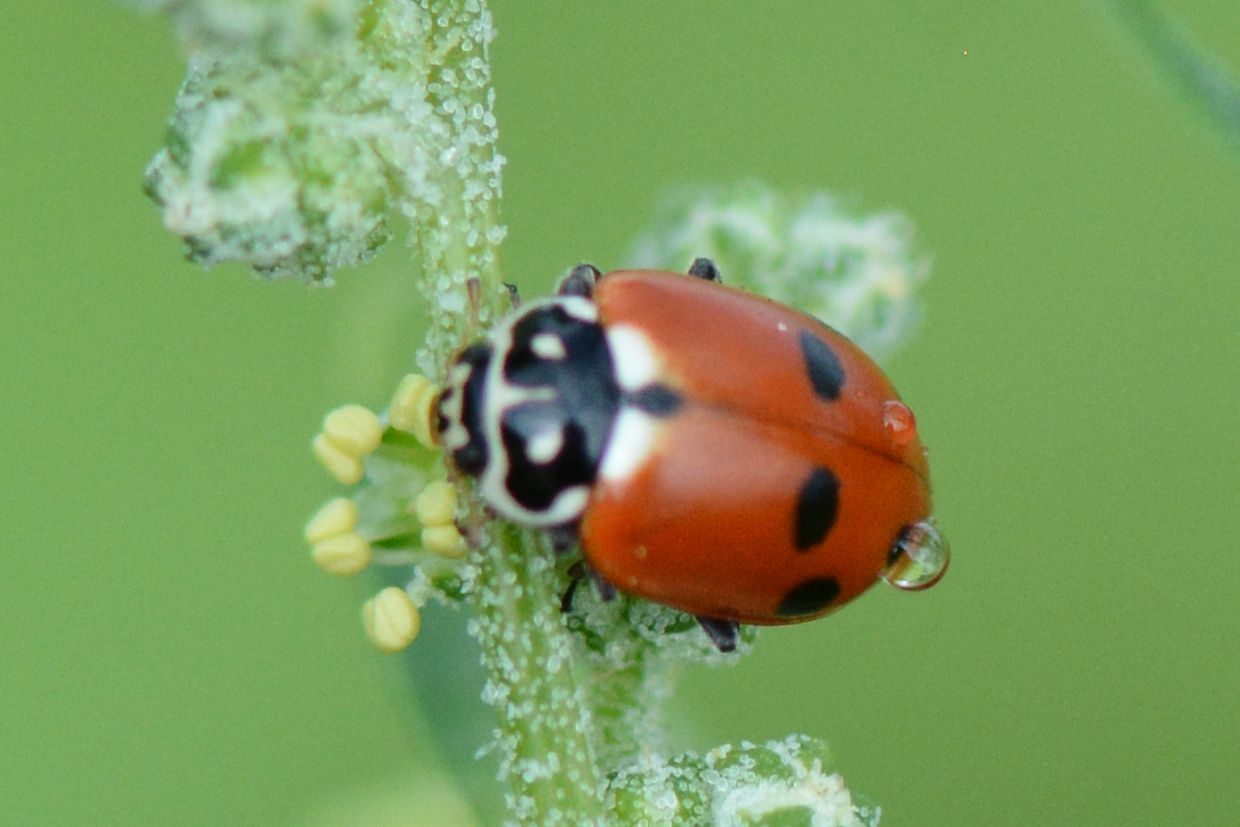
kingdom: Animalia
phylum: Arthropoda
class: Insecta
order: Coleoptera
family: Coccinellidae
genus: Hippodamia
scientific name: Hippodamia variegata
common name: Ladybird beetle
